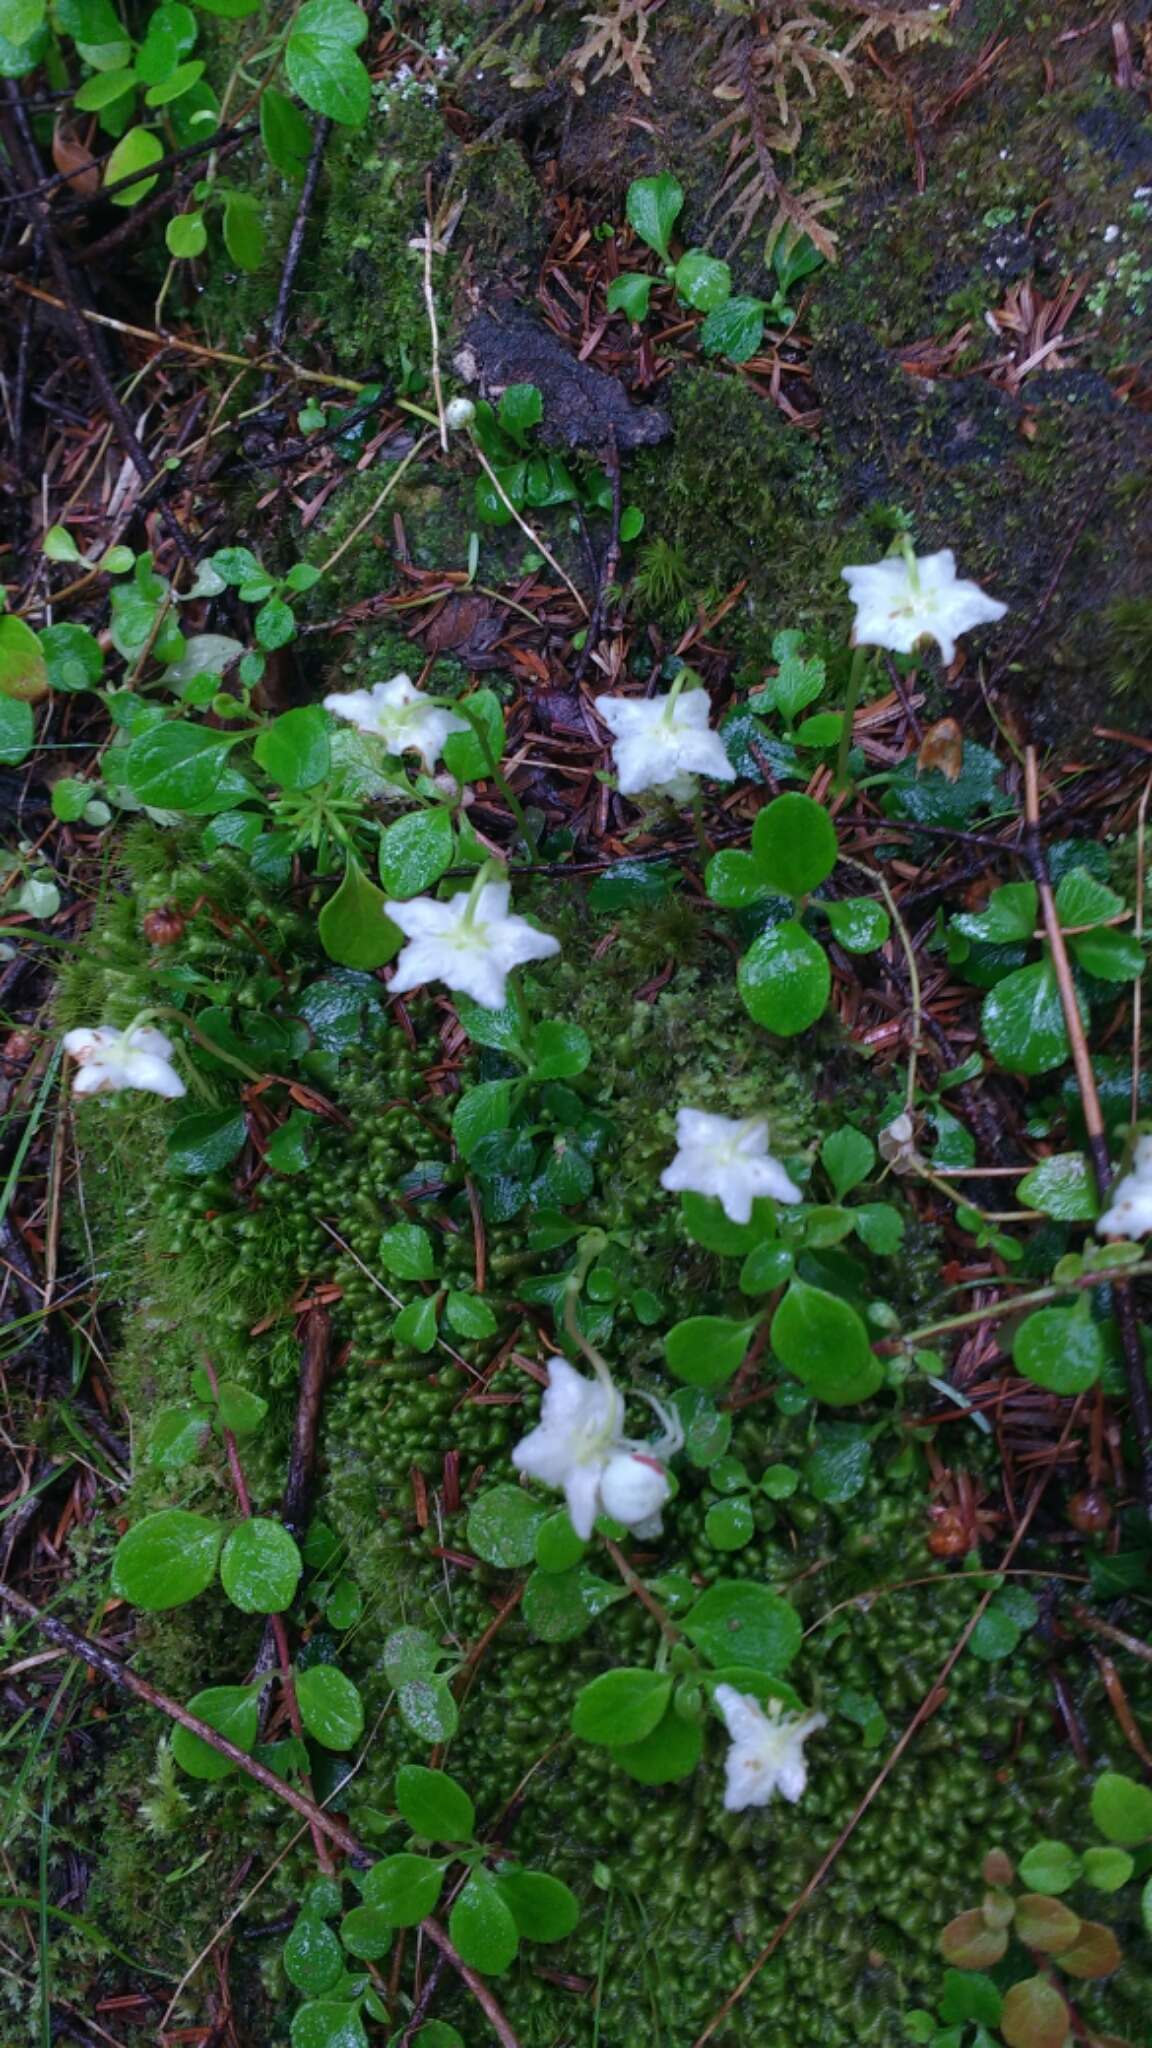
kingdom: Plantae
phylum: Tracheophyta
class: Magnoliopsida
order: Ericales
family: Ericaceae
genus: Moneses
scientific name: Moneses uniflora
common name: One-flowered wintergreen
